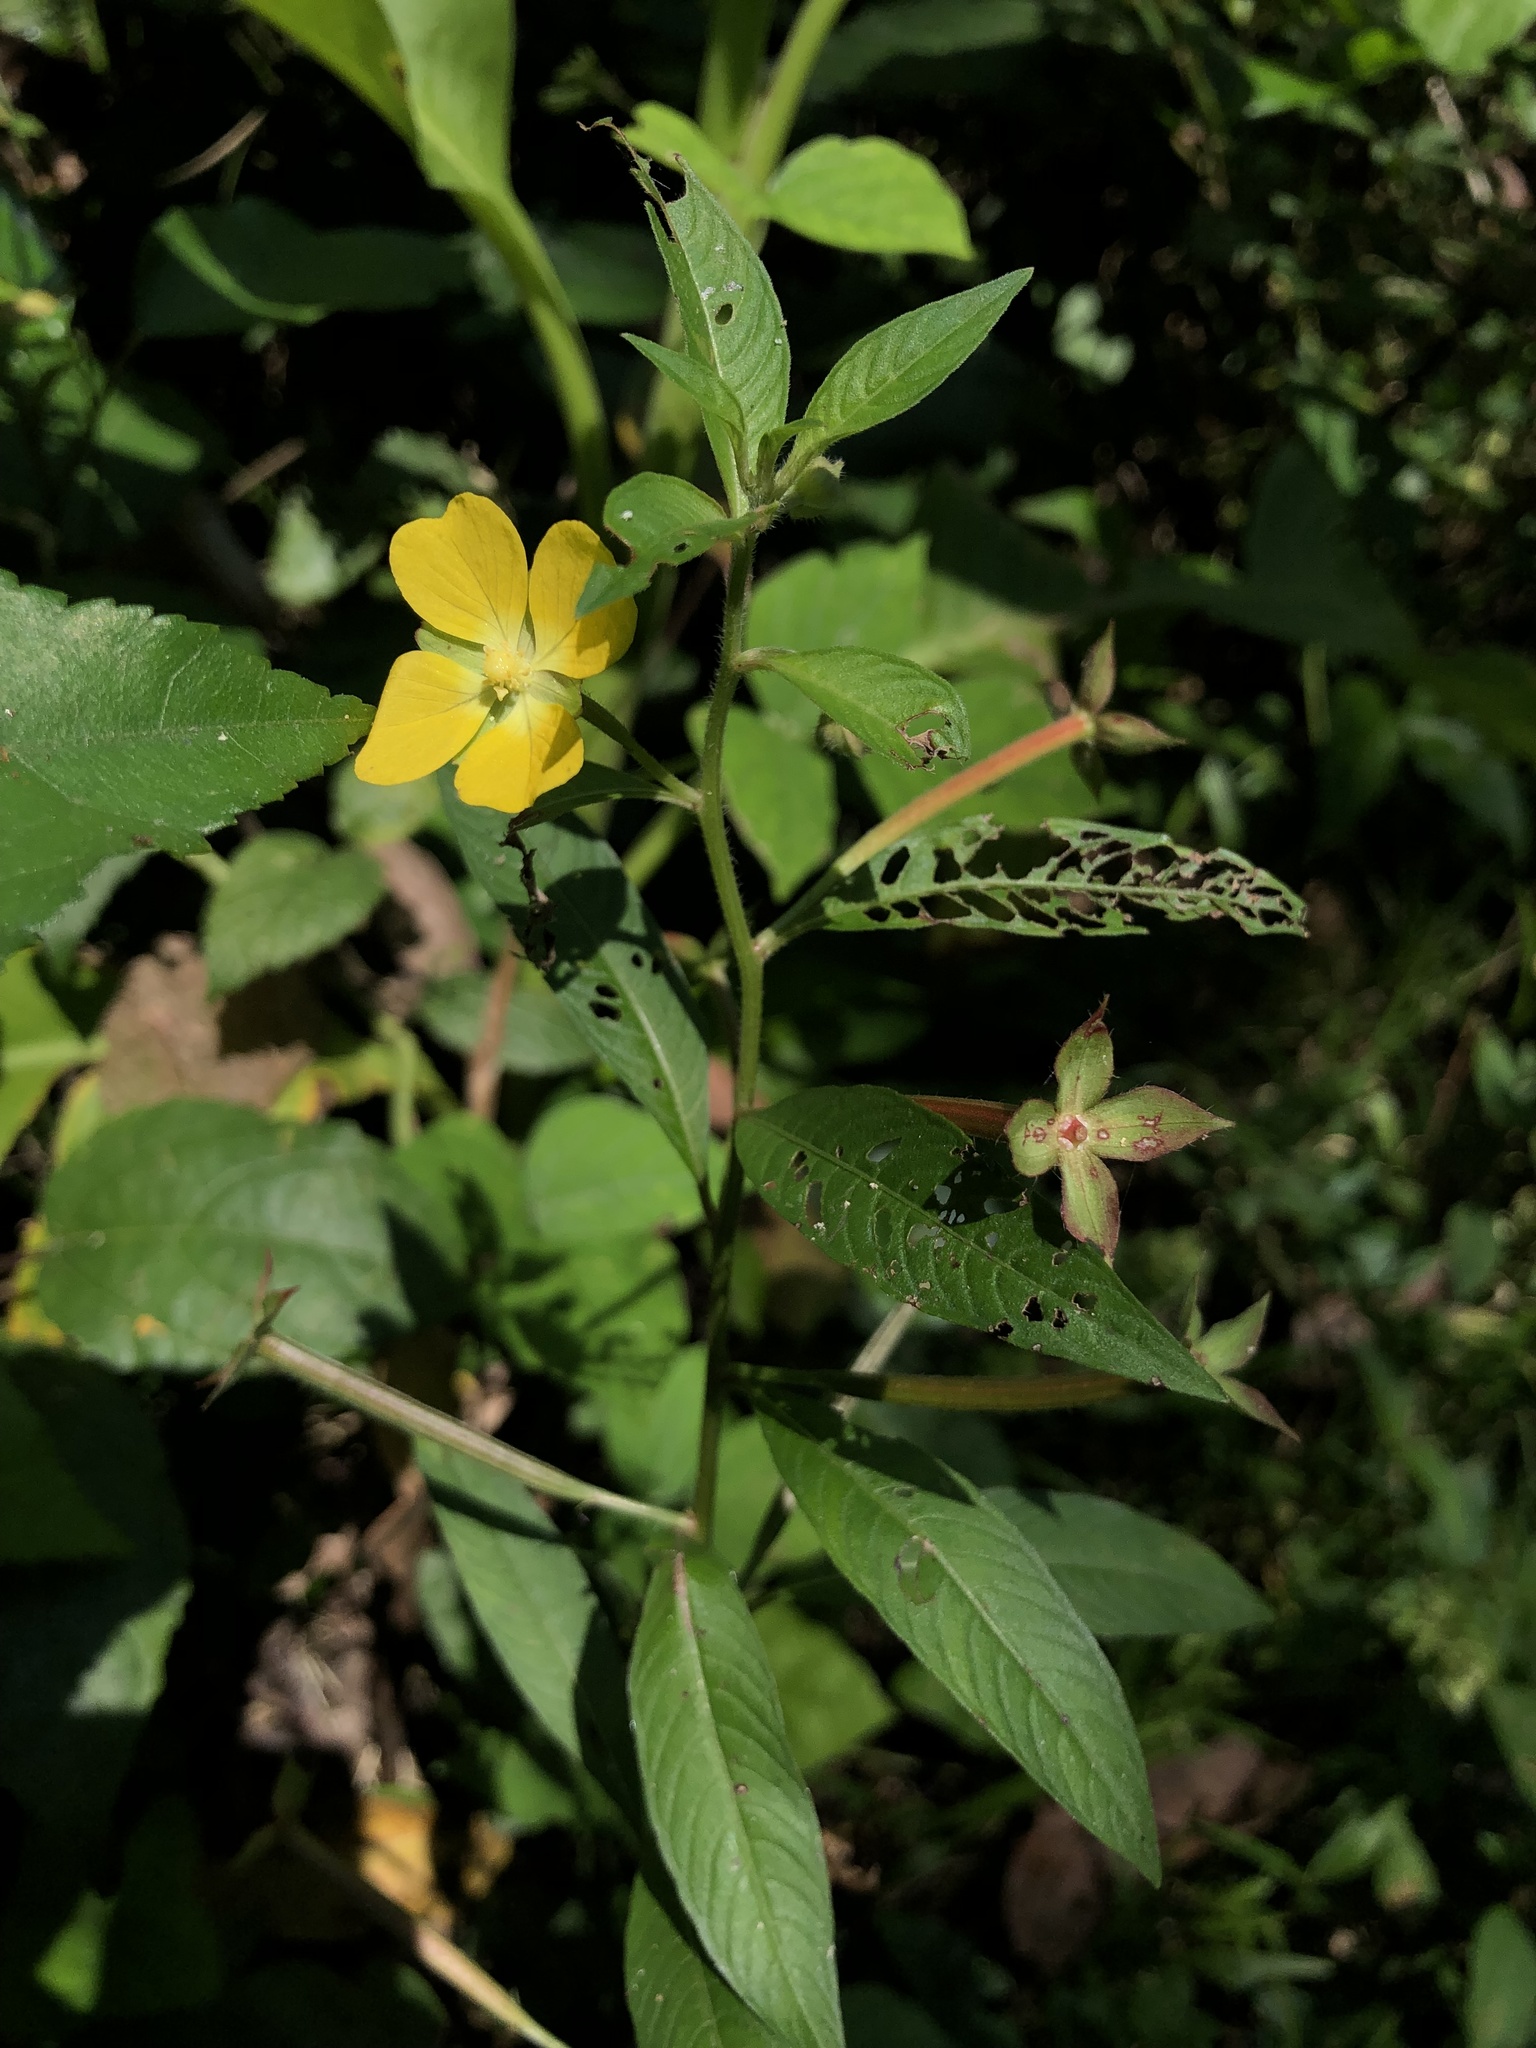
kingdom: Plantae
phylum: Tracheophyta
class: Magnoliopsida
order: Myrtales
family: Onagraceae
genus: Ludwigia
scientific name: Ludwigia octovalvis
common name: Water-primrose
